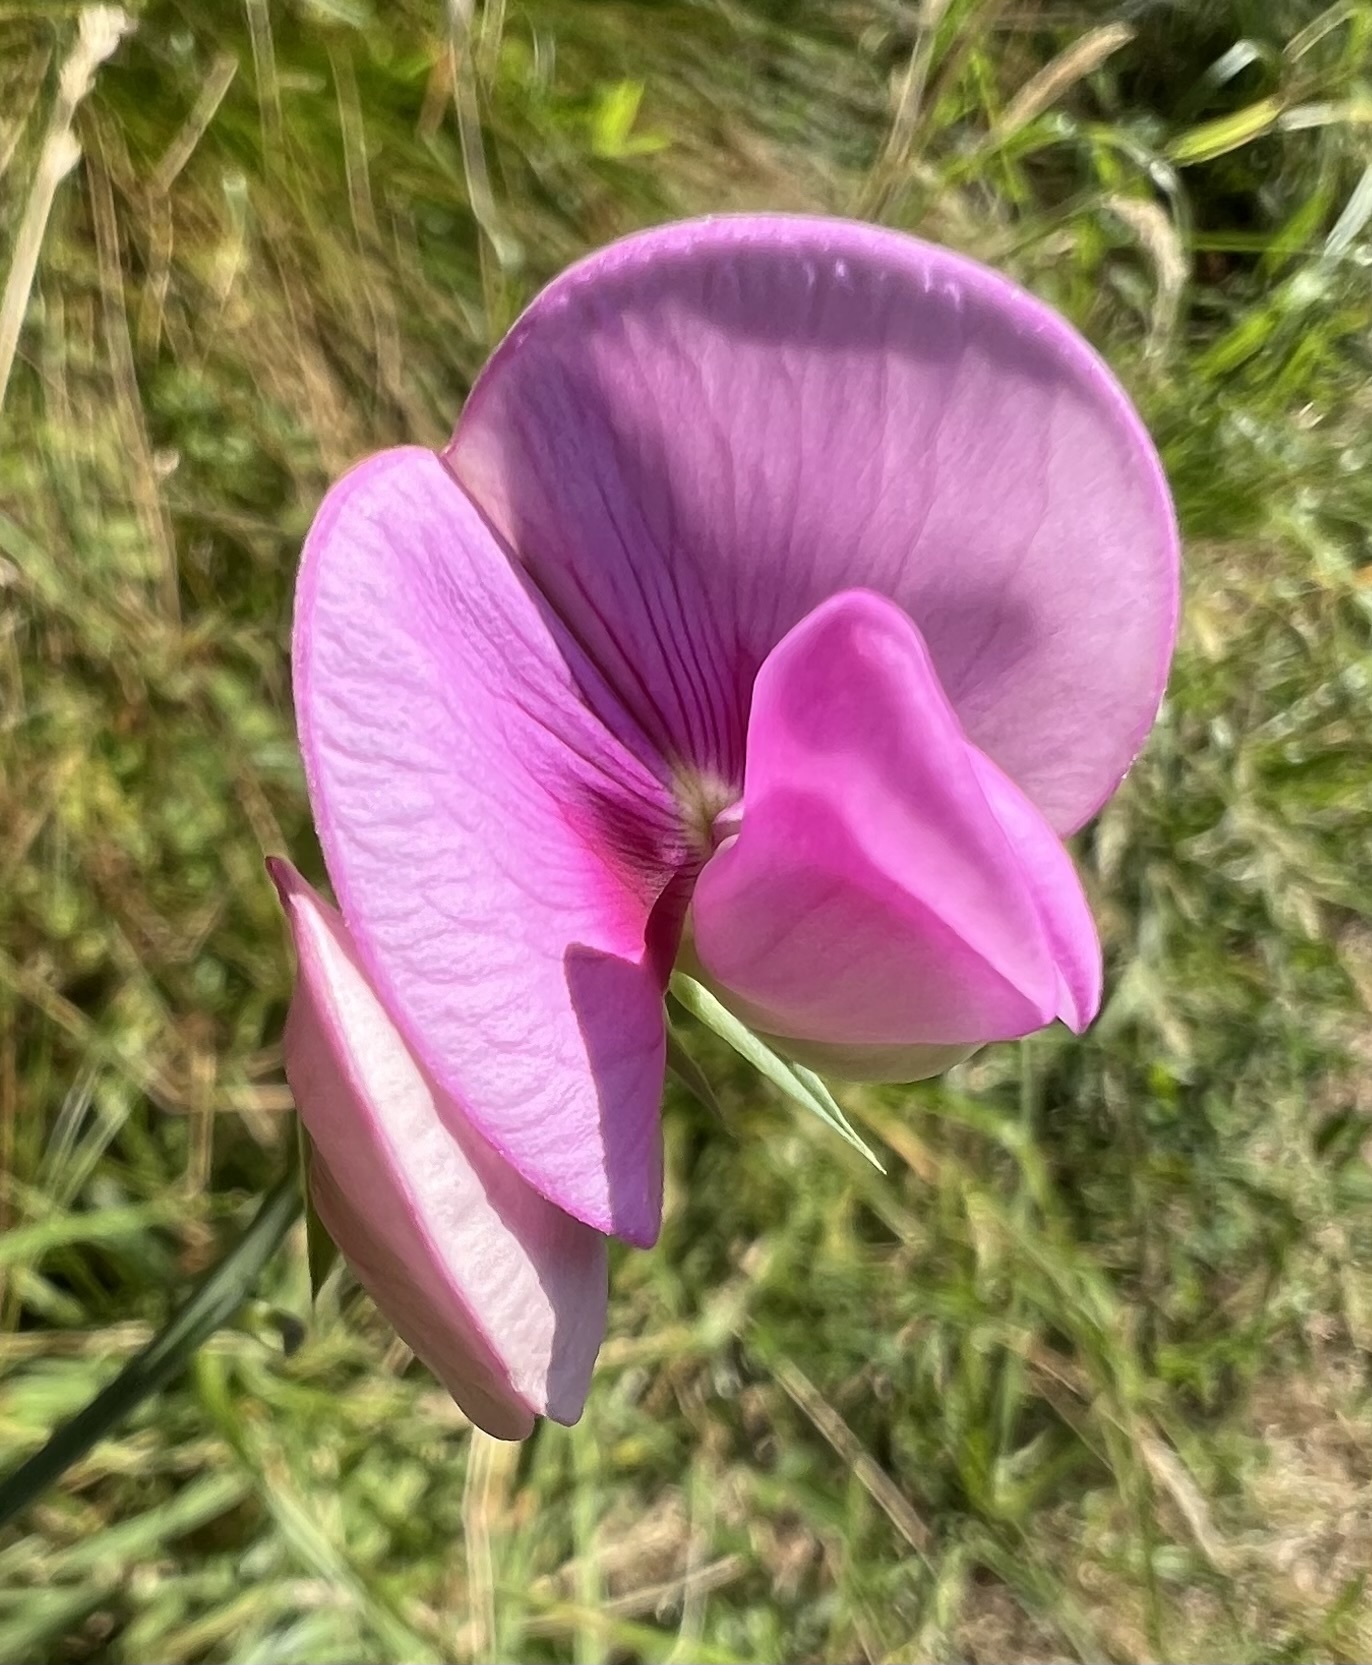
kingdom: Plantae
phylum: Tracheophyta
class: Magnoliopsida
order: Fabales
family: Fabaceae
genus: Lathyrus
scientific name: Lathyrus latifolius
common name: Perennial pea
